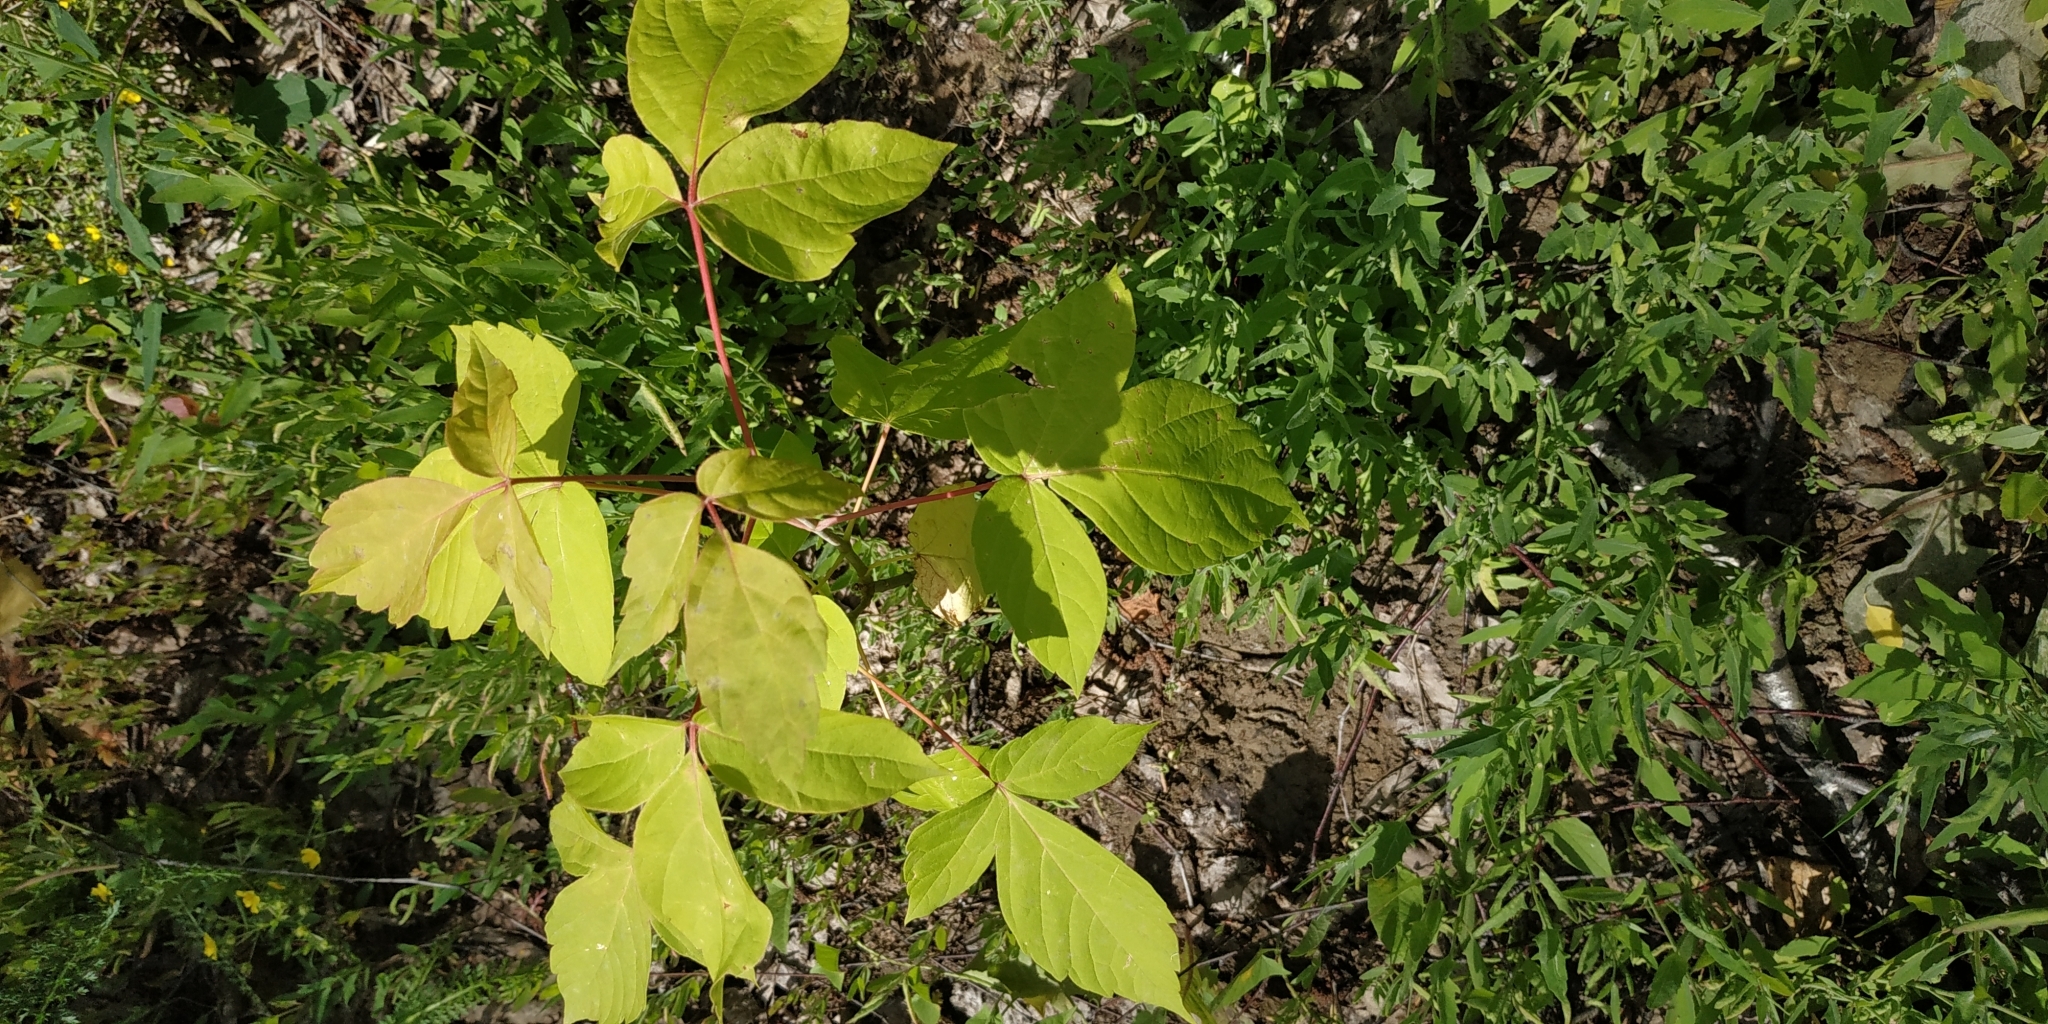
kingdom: Plantae
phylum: Tracheophyta
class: Magnoliopsida
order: Sapindales
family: Sapindaceae
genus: Acer
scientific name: Acer negundo
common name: Ashleaf maple
